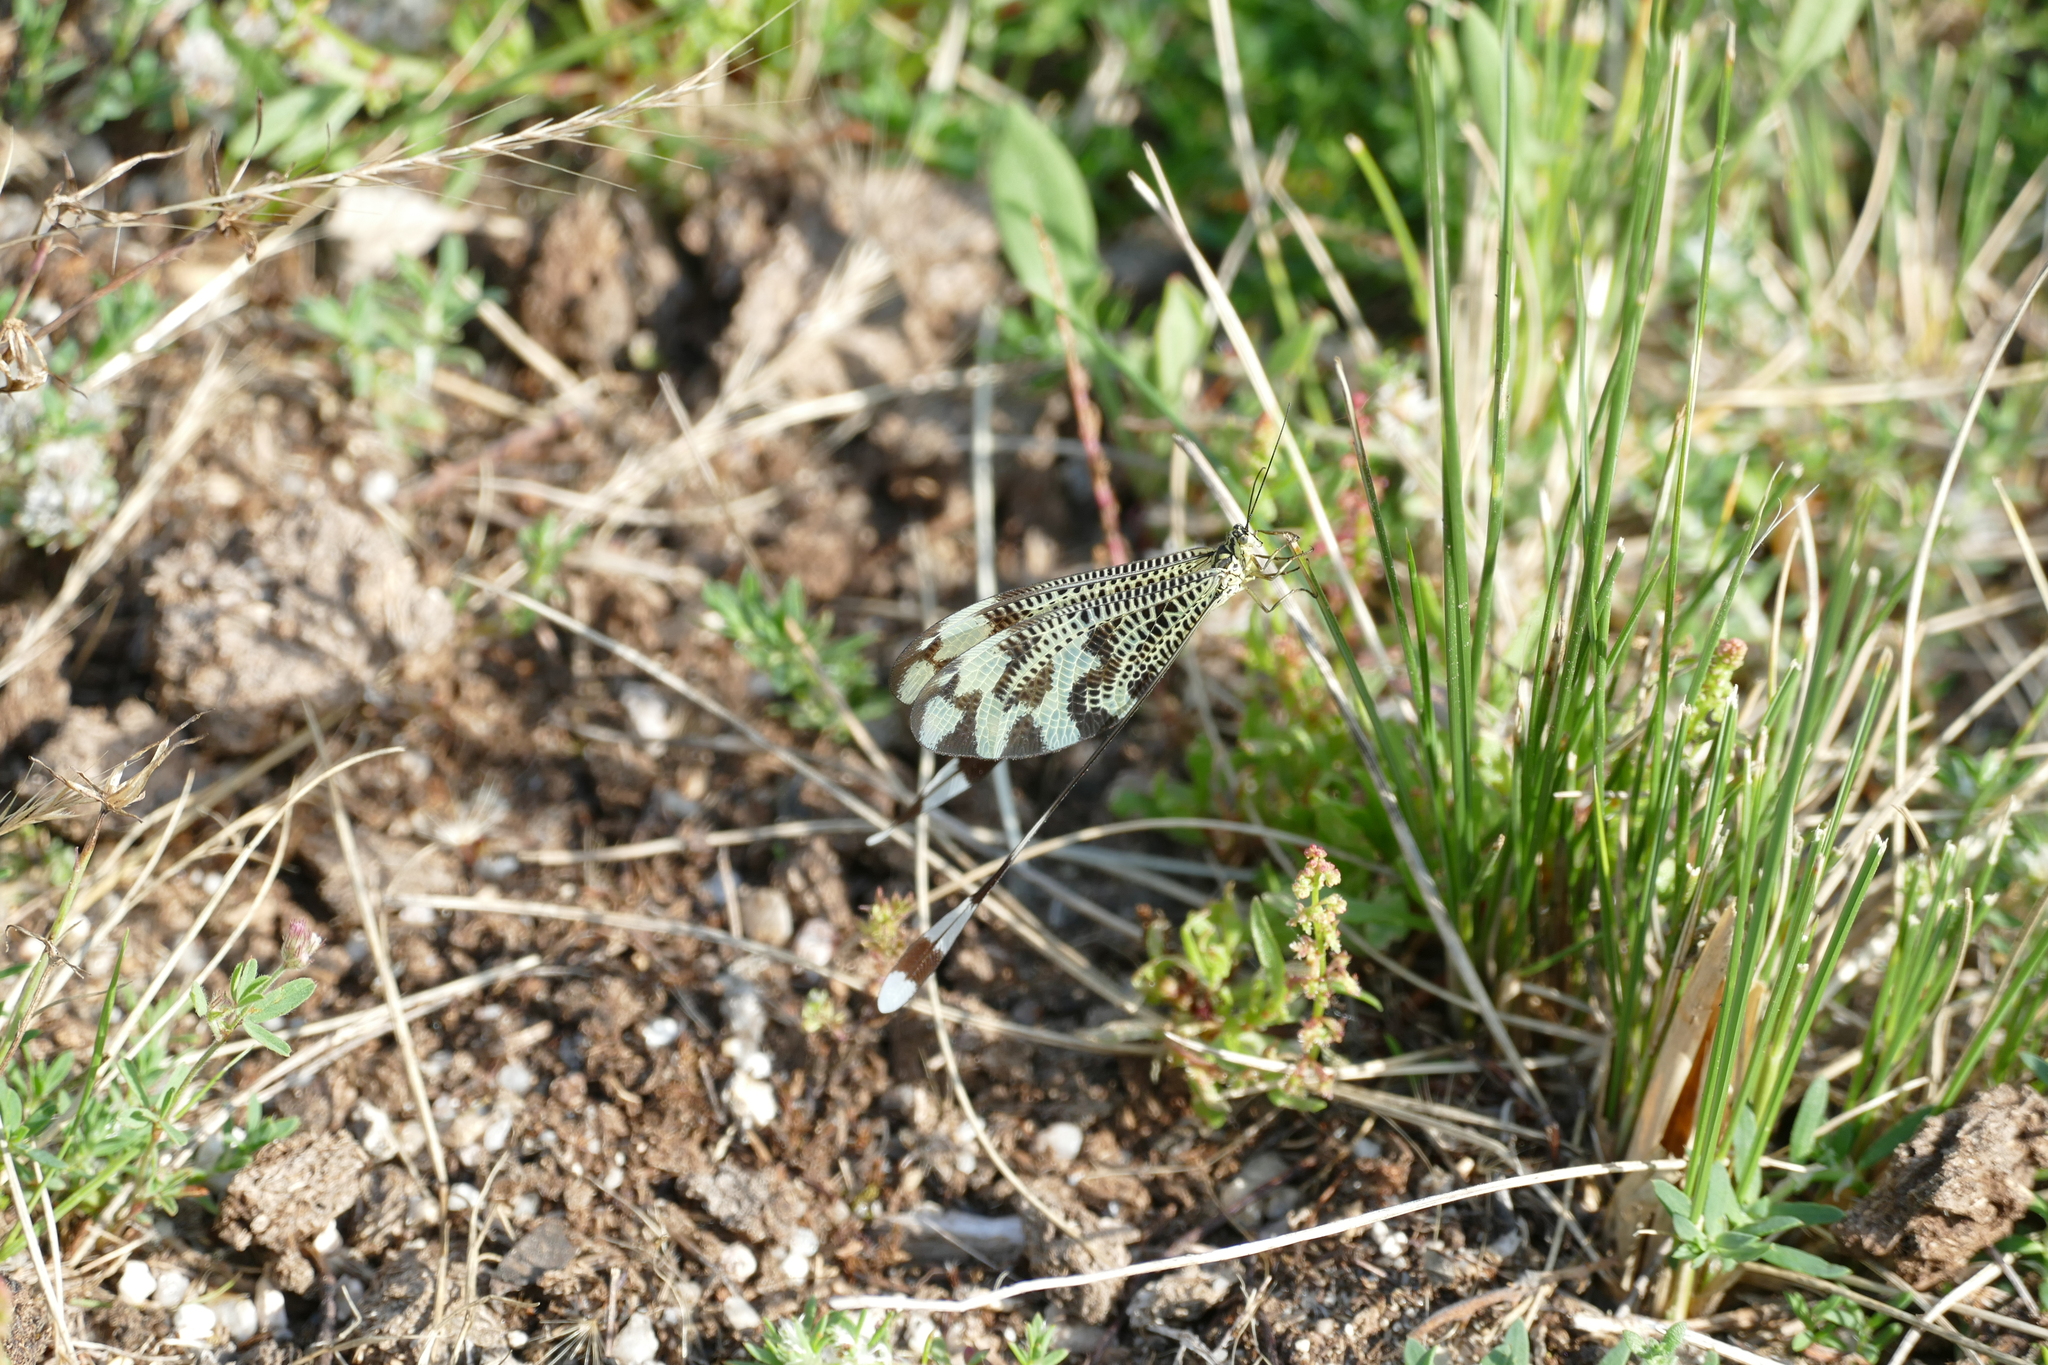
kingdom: Animalia
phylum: Arthropoda
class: Insecta
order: Neuroptera
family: Nemopteridae
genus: Nemoptera
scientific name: Nemoptera bipennis
